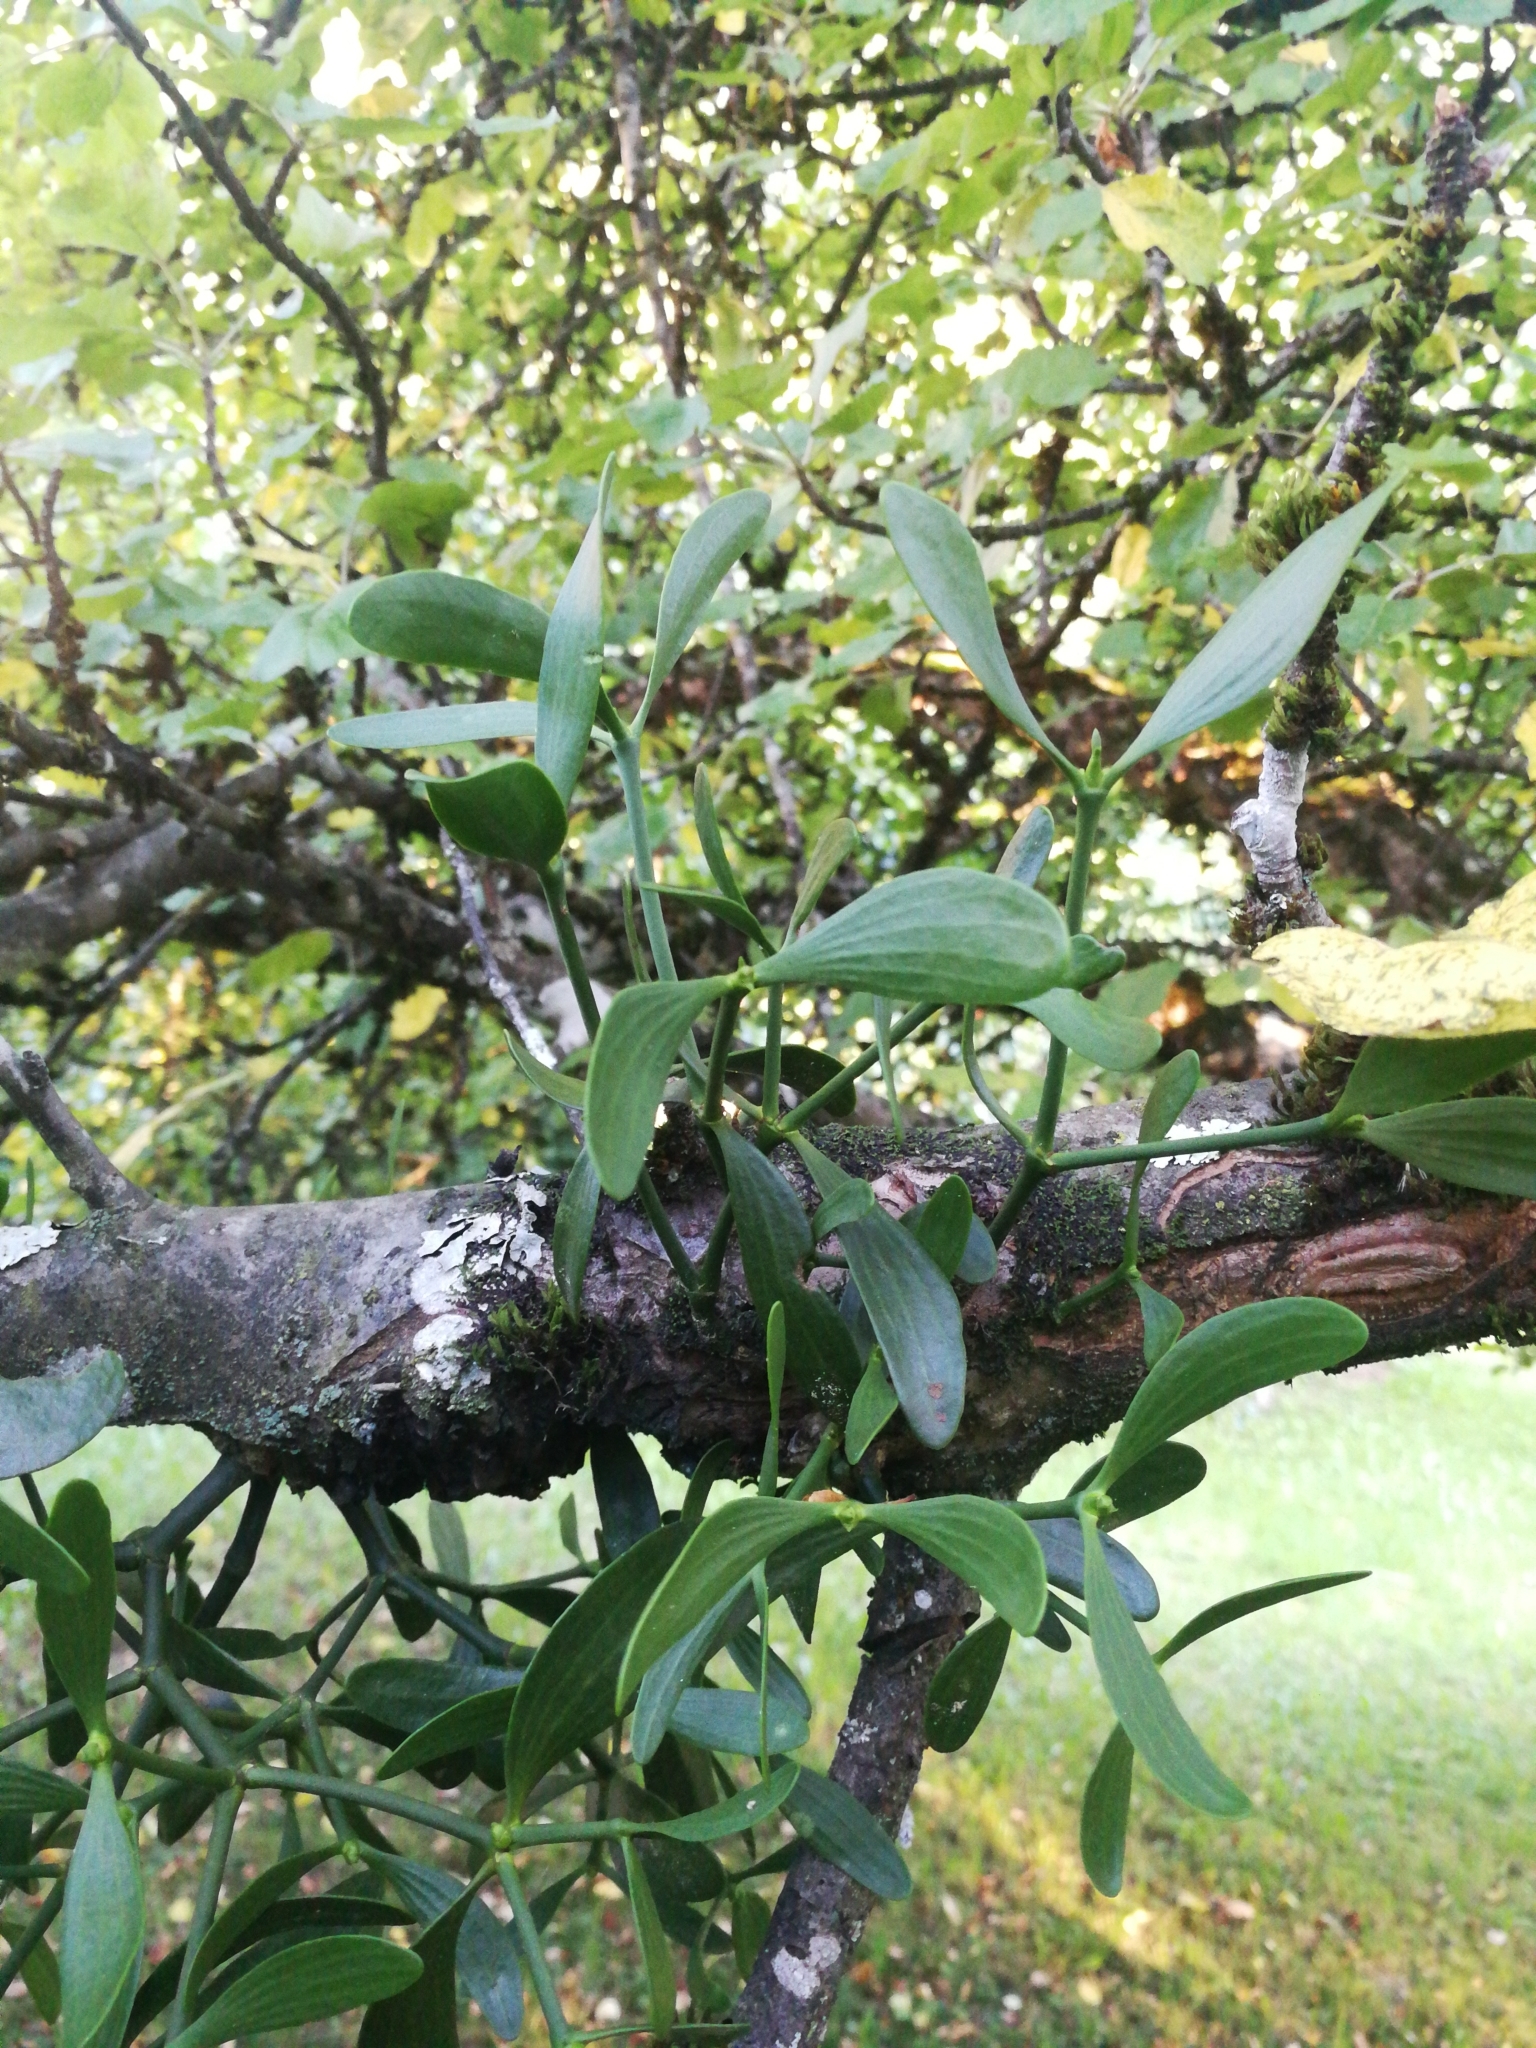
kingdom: Plantae
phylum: Tracheophyta
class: Magnoliopsida
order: Santalales
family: Viscaceae
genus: Viscum
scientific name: Viscum album
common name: Mistletoe
